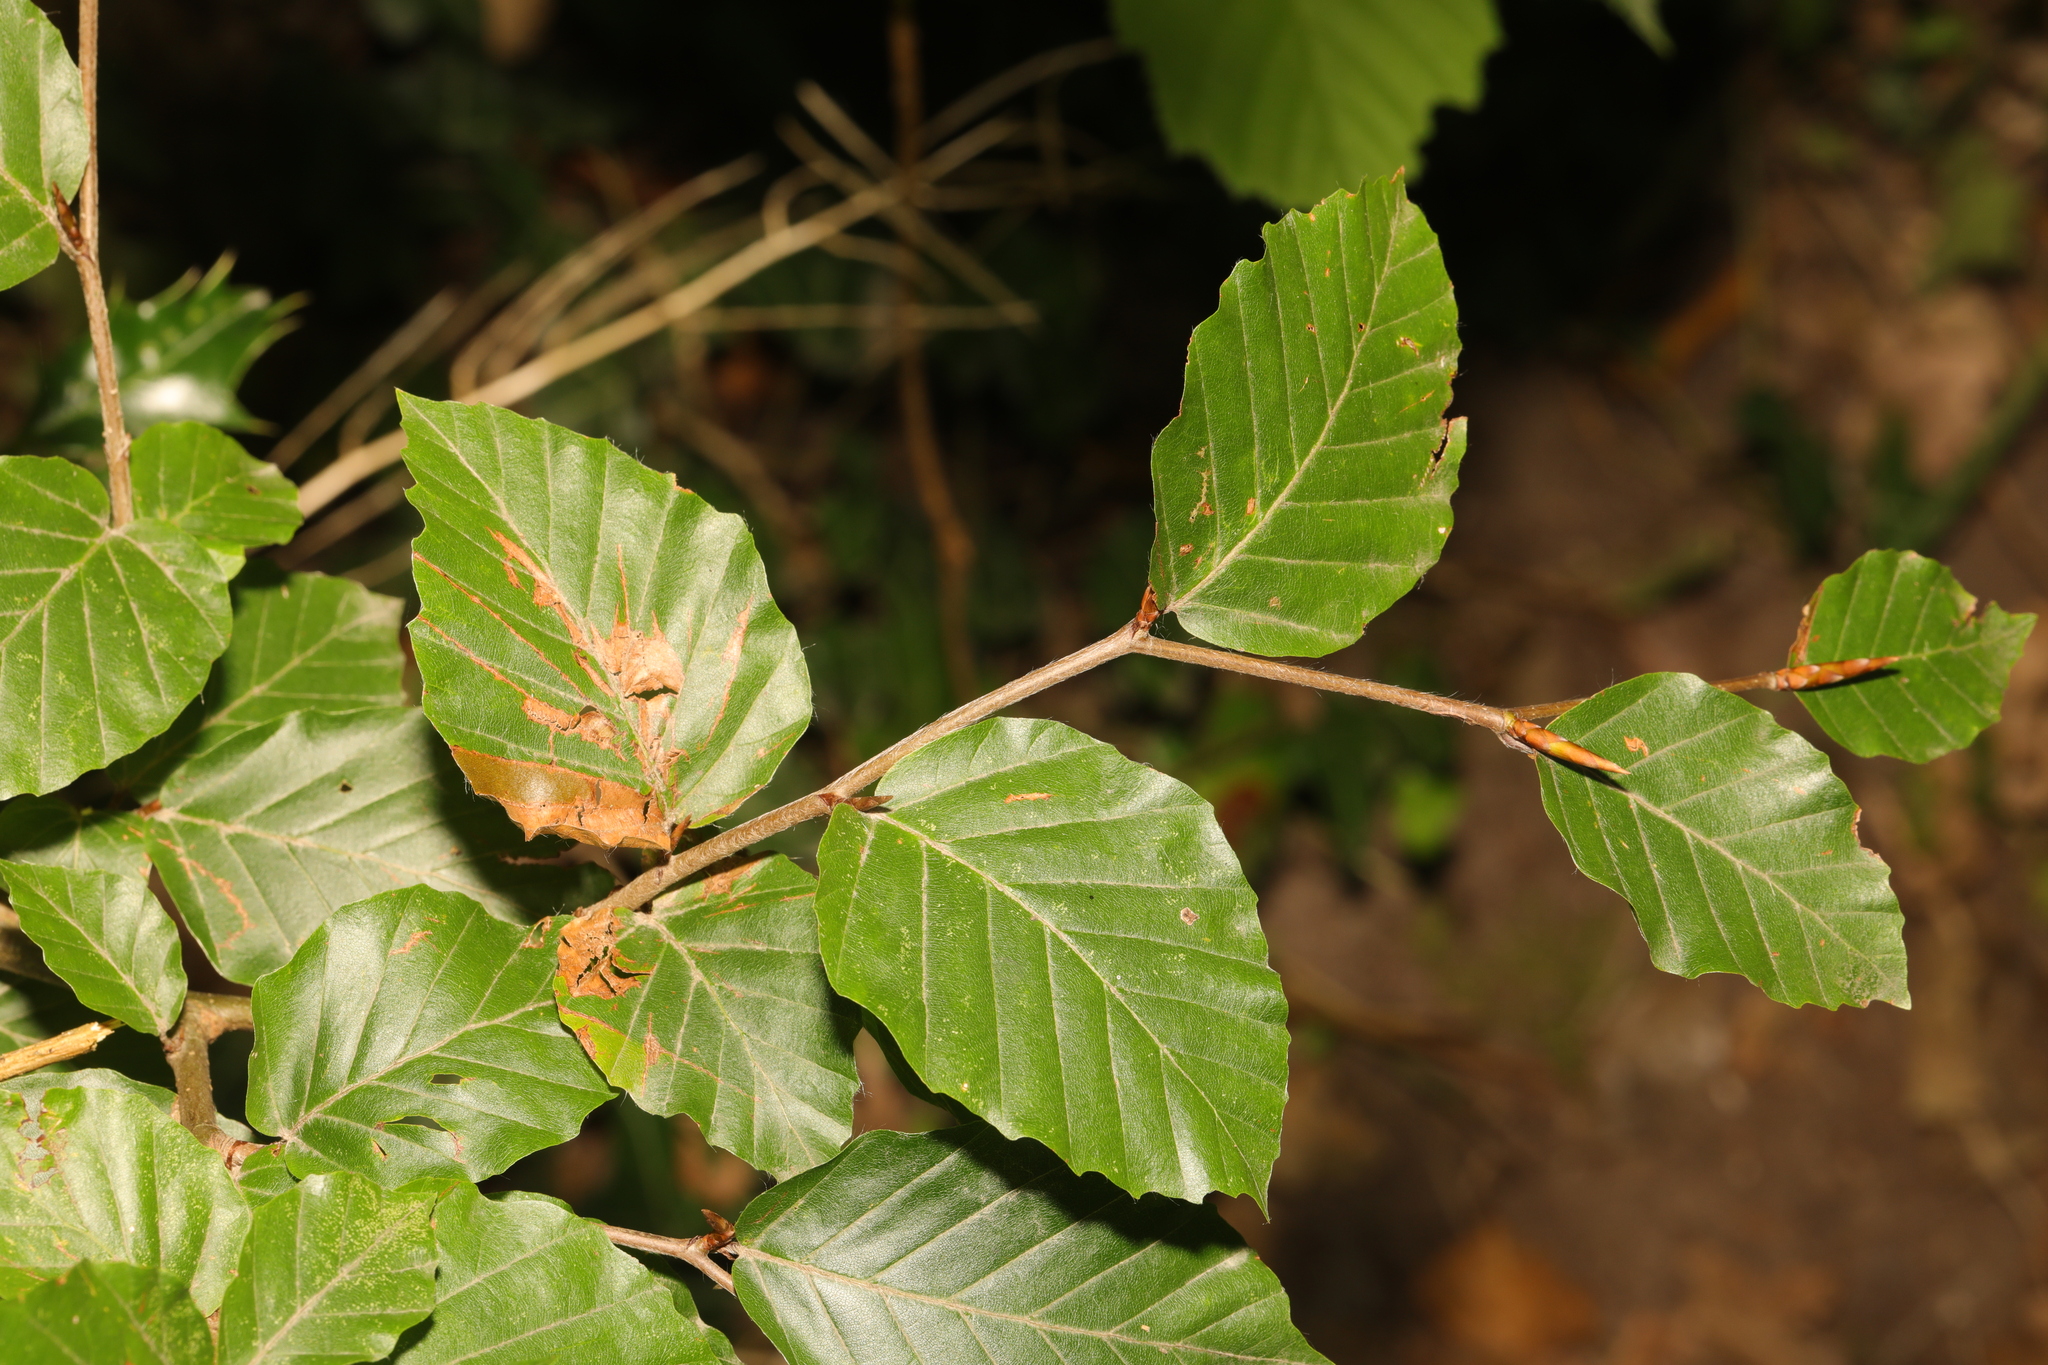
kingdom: Plantae
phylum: Tracheophyta
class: Magnoliopsida
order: Fagales
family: Fagaceae
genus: Fagus
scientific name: Fagus sylvatica
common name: Beech
